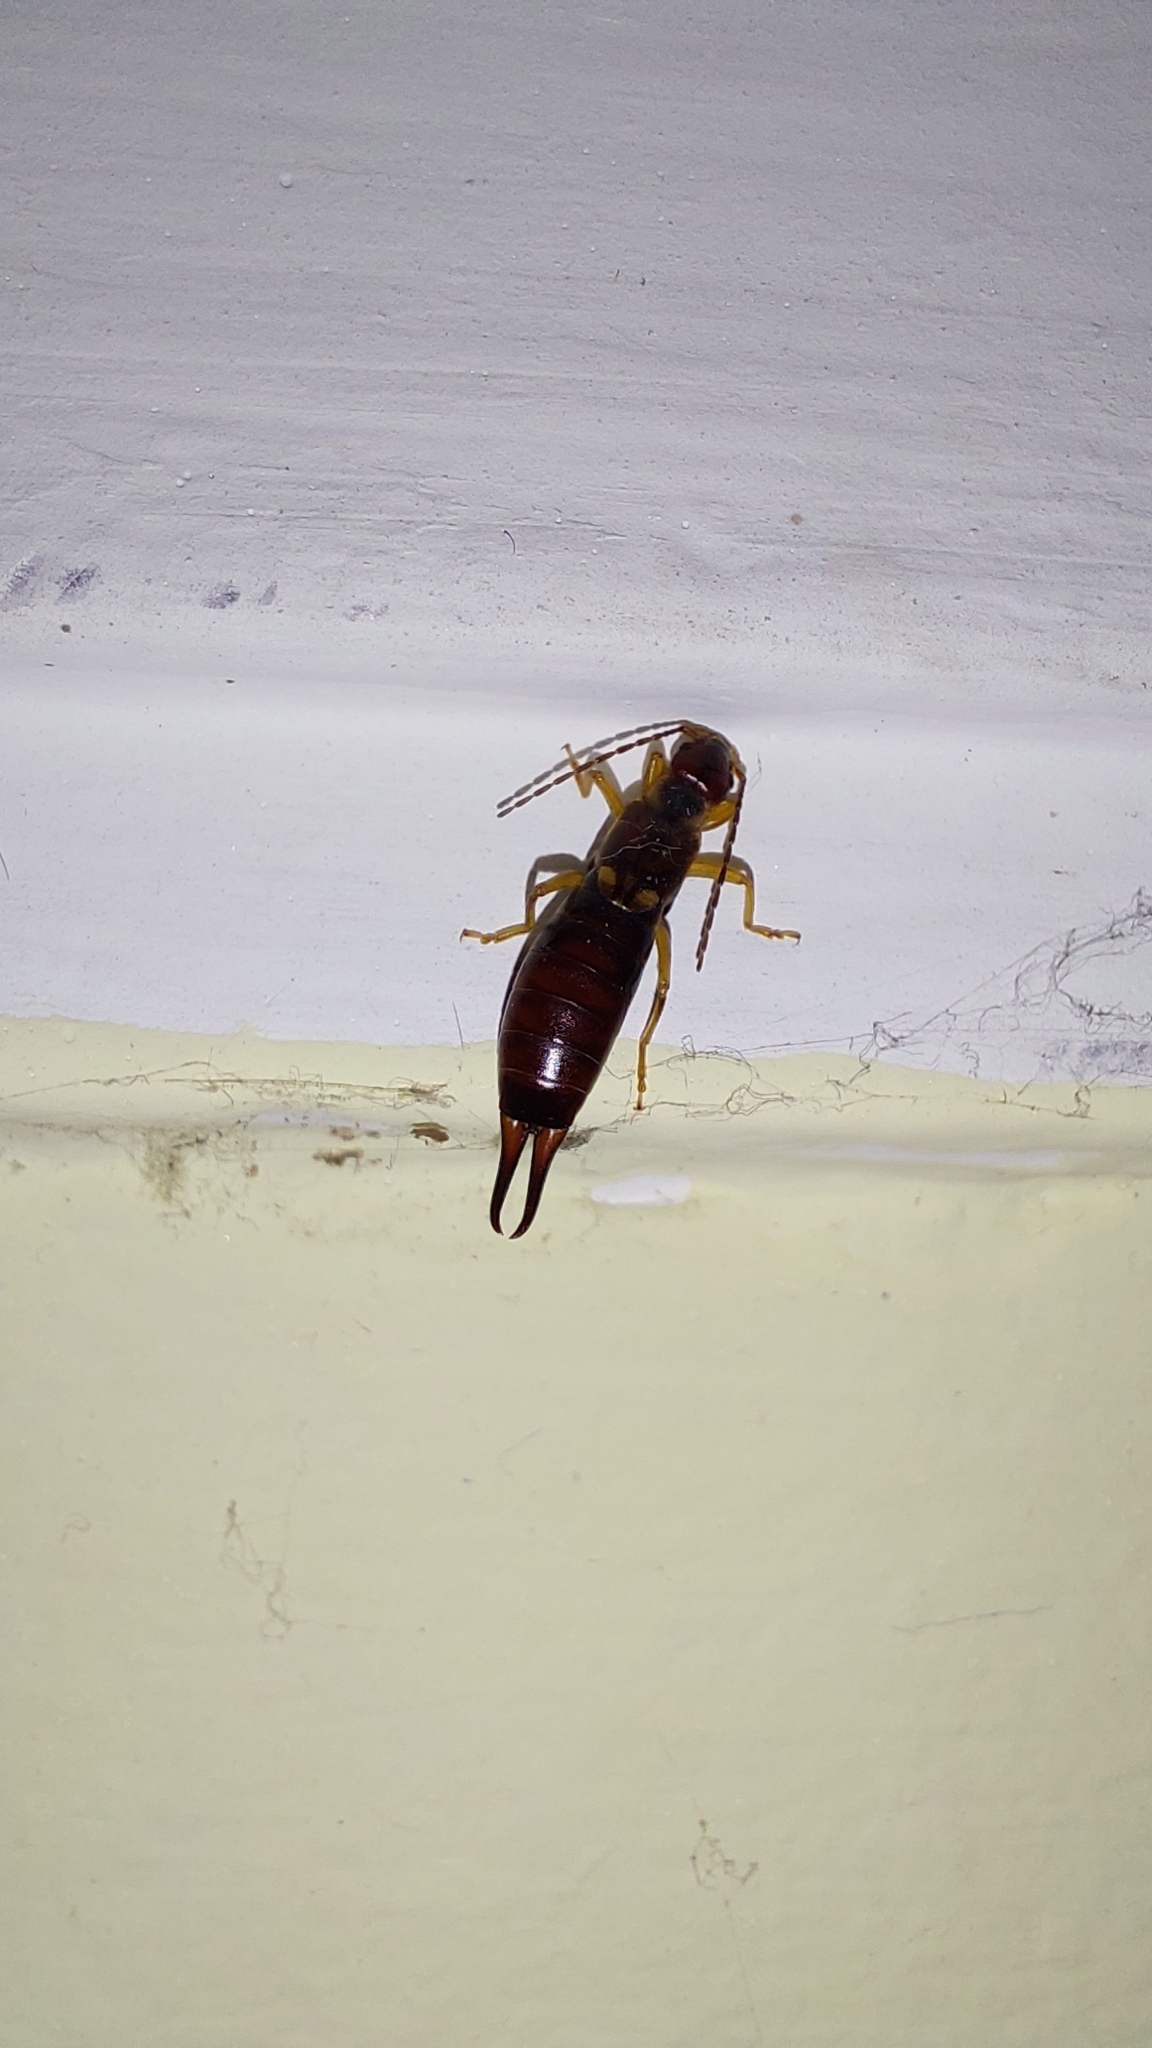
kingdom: Animalia
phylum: Arthropoda
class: Insecta
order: Dermaptera
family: Forficulidae
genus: Forficula
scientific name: Forficula
